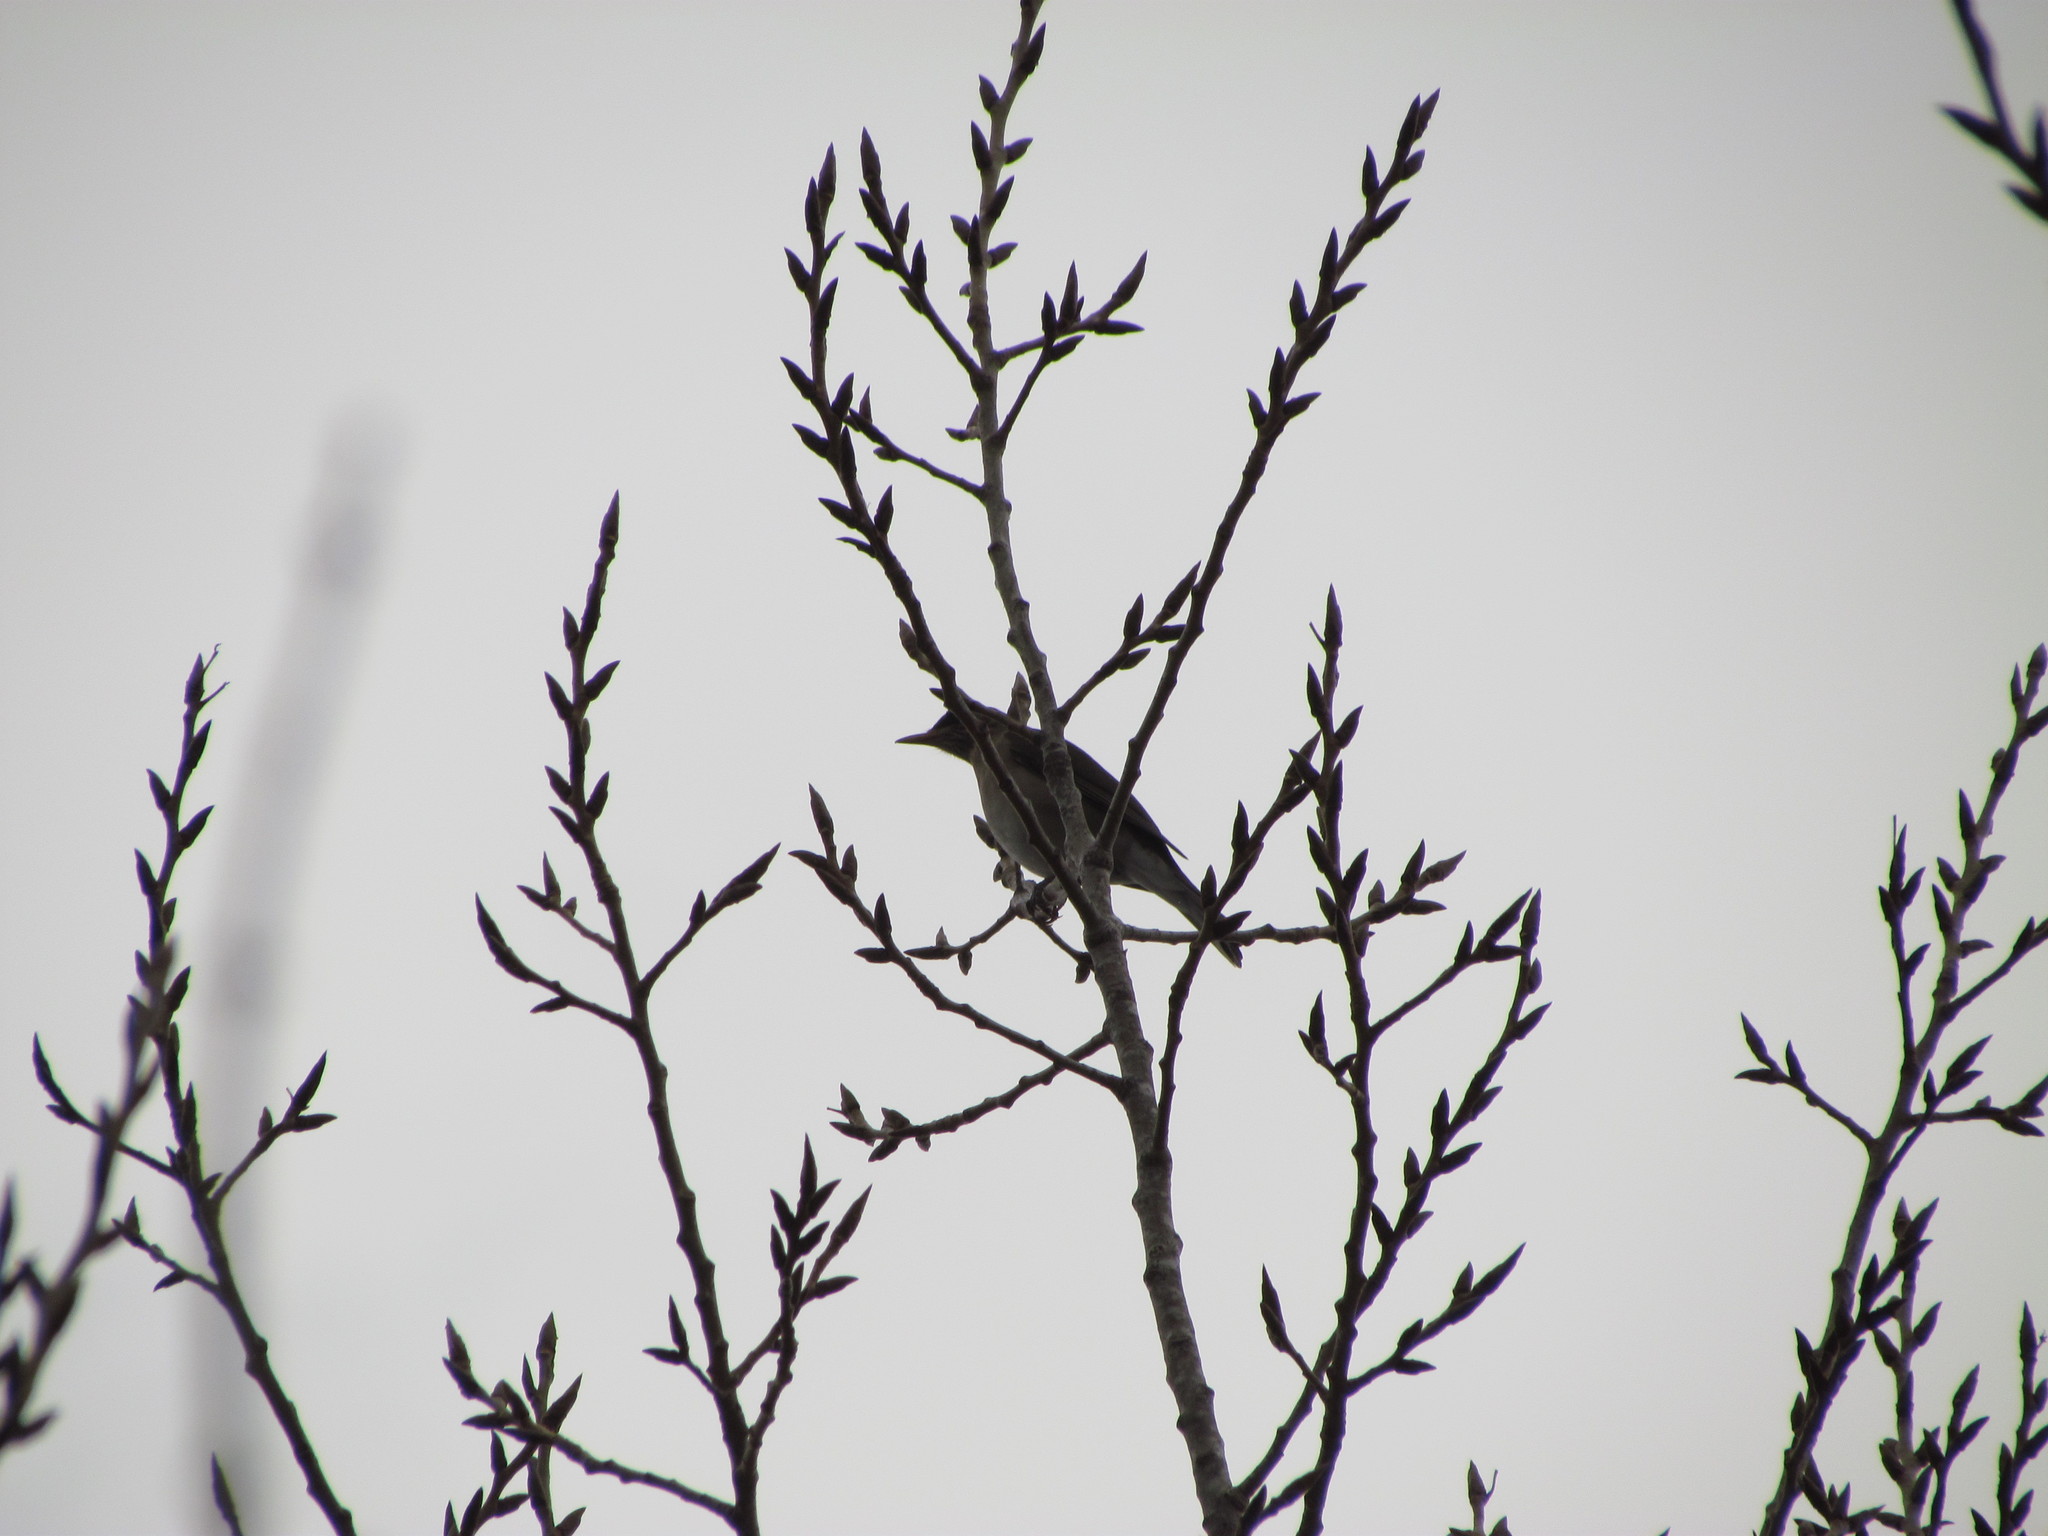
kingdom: Animalia
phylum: Chordata
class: Aves
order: Passeriformes
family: Turdidae
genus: Turdus
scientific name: Turdus amaurochalinus
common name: Creamy-bellied thrush
